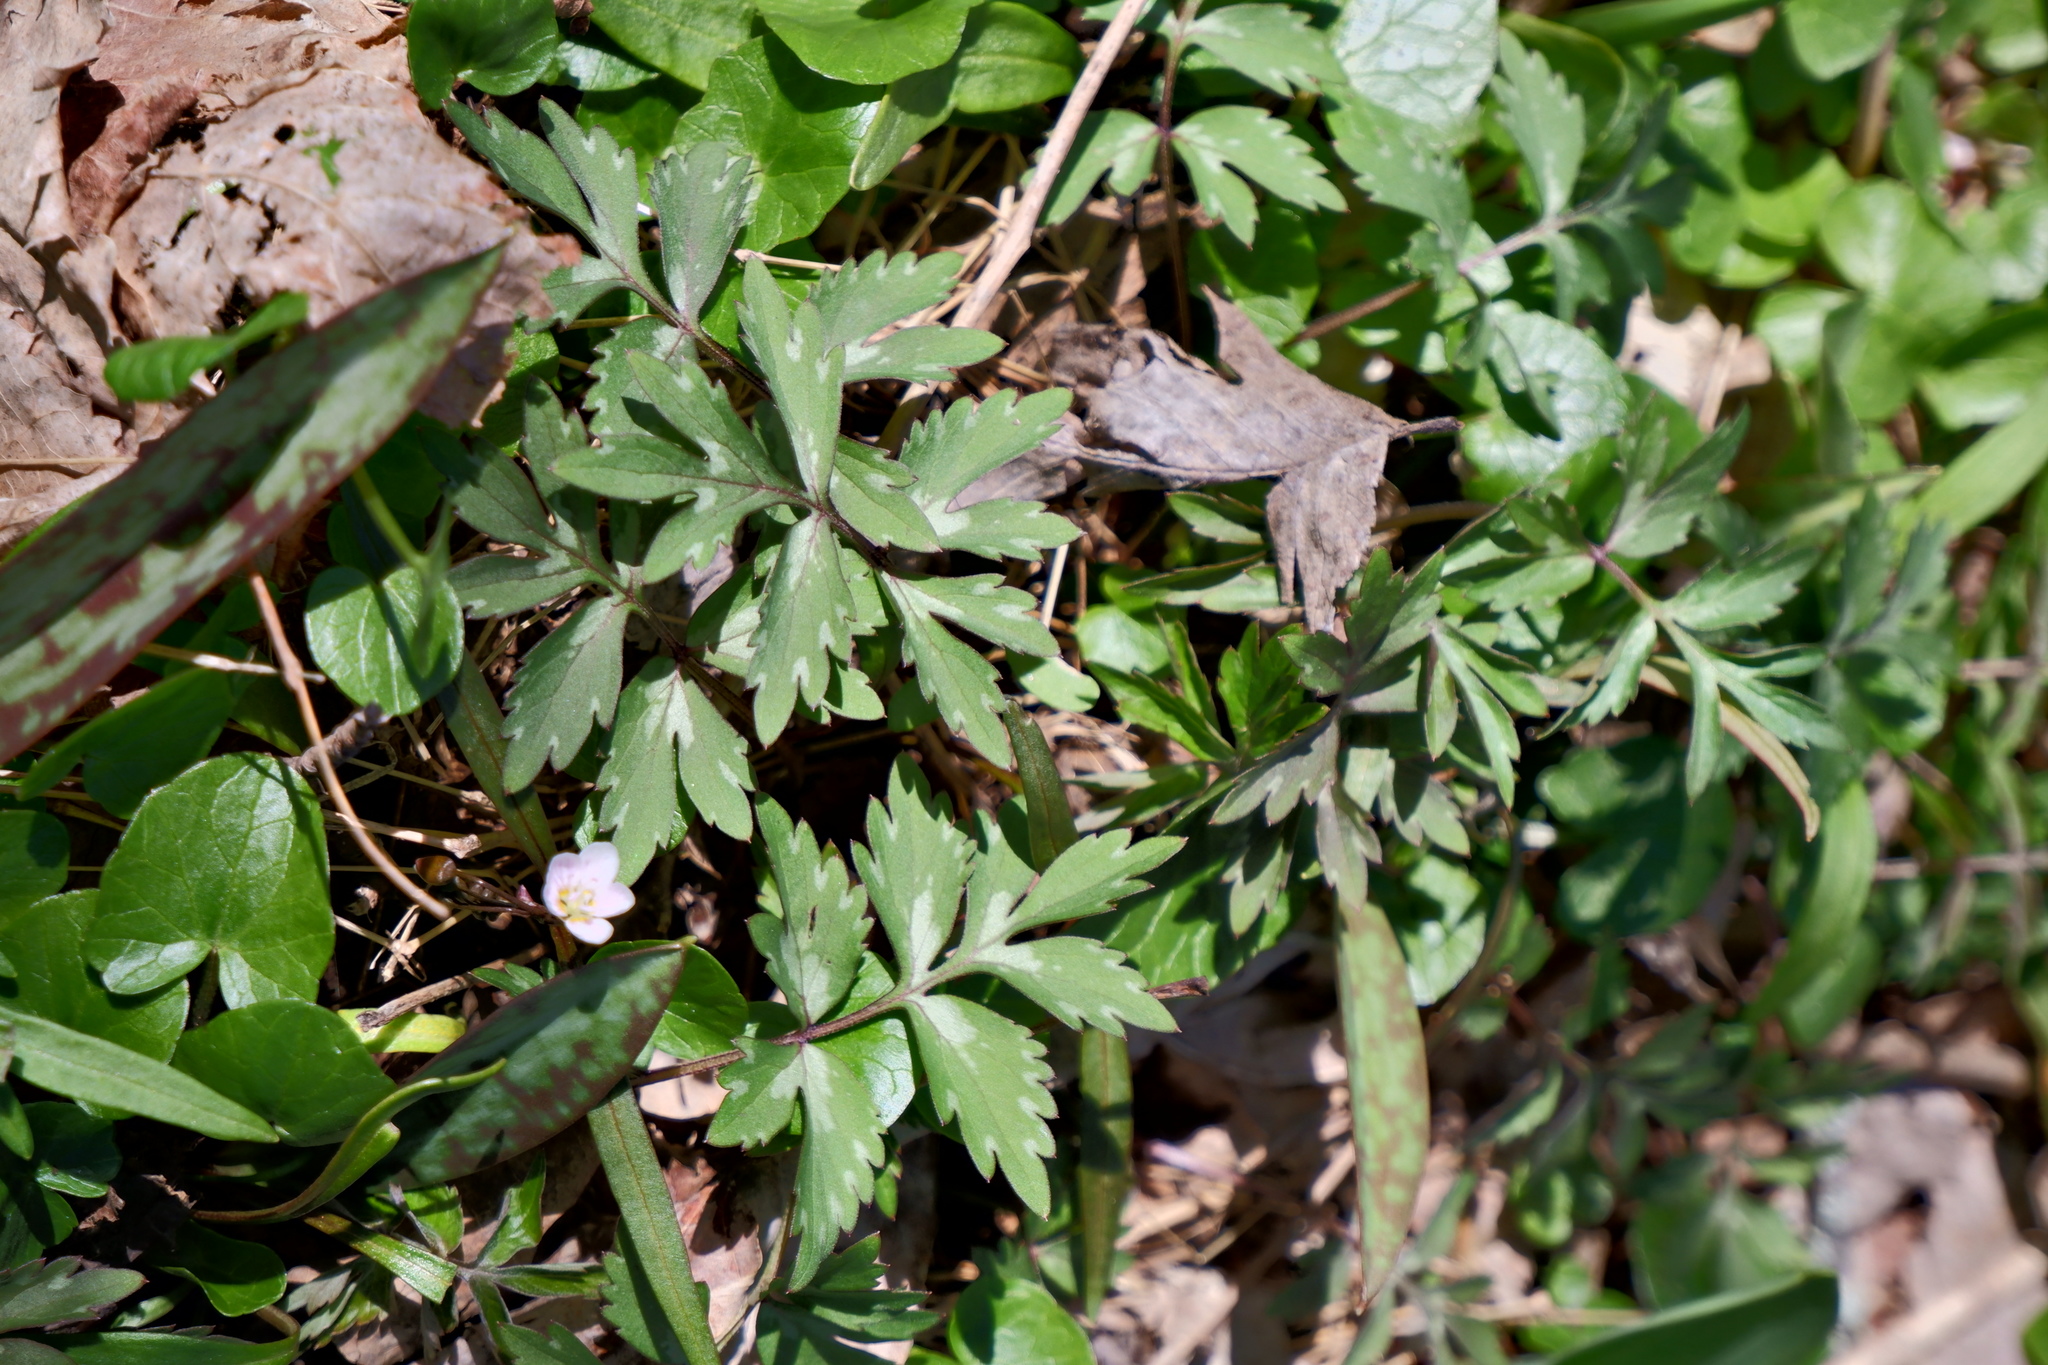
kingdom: Plantae
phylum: Tracheophyta
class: Magnoliopsida
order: Boraginales
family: Hydrophyllaceae
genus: Hydrophyllum
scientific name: Hydrophyllum virginianum
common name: Virginia waterleaf
